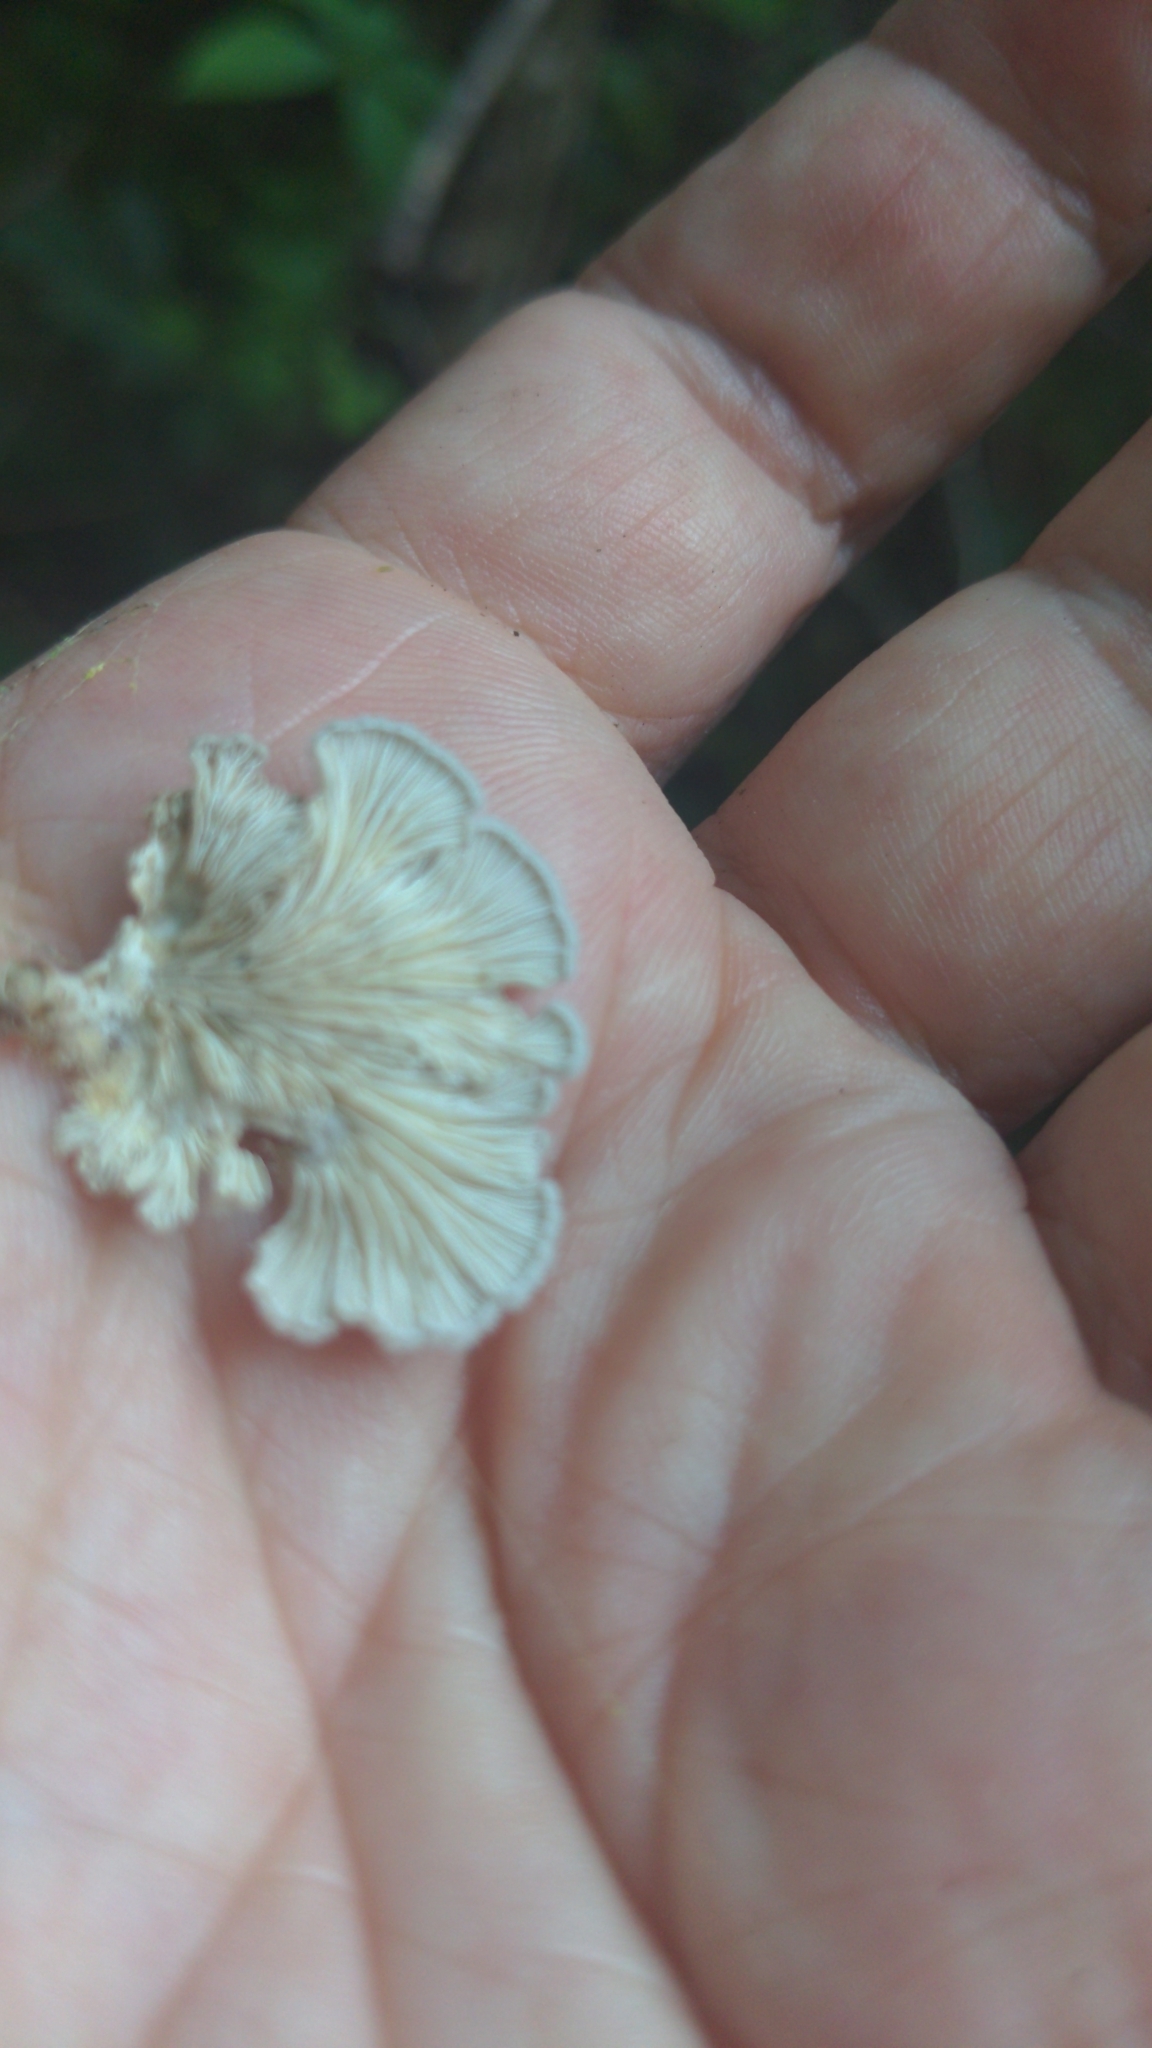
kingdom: Fungi
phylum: Basidiomycota
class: Agaricomycetes
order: Agaricales
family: Schizophyllaceae
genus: Schizophyllum
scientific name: Schizophyllum commune
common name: Common porecrust
